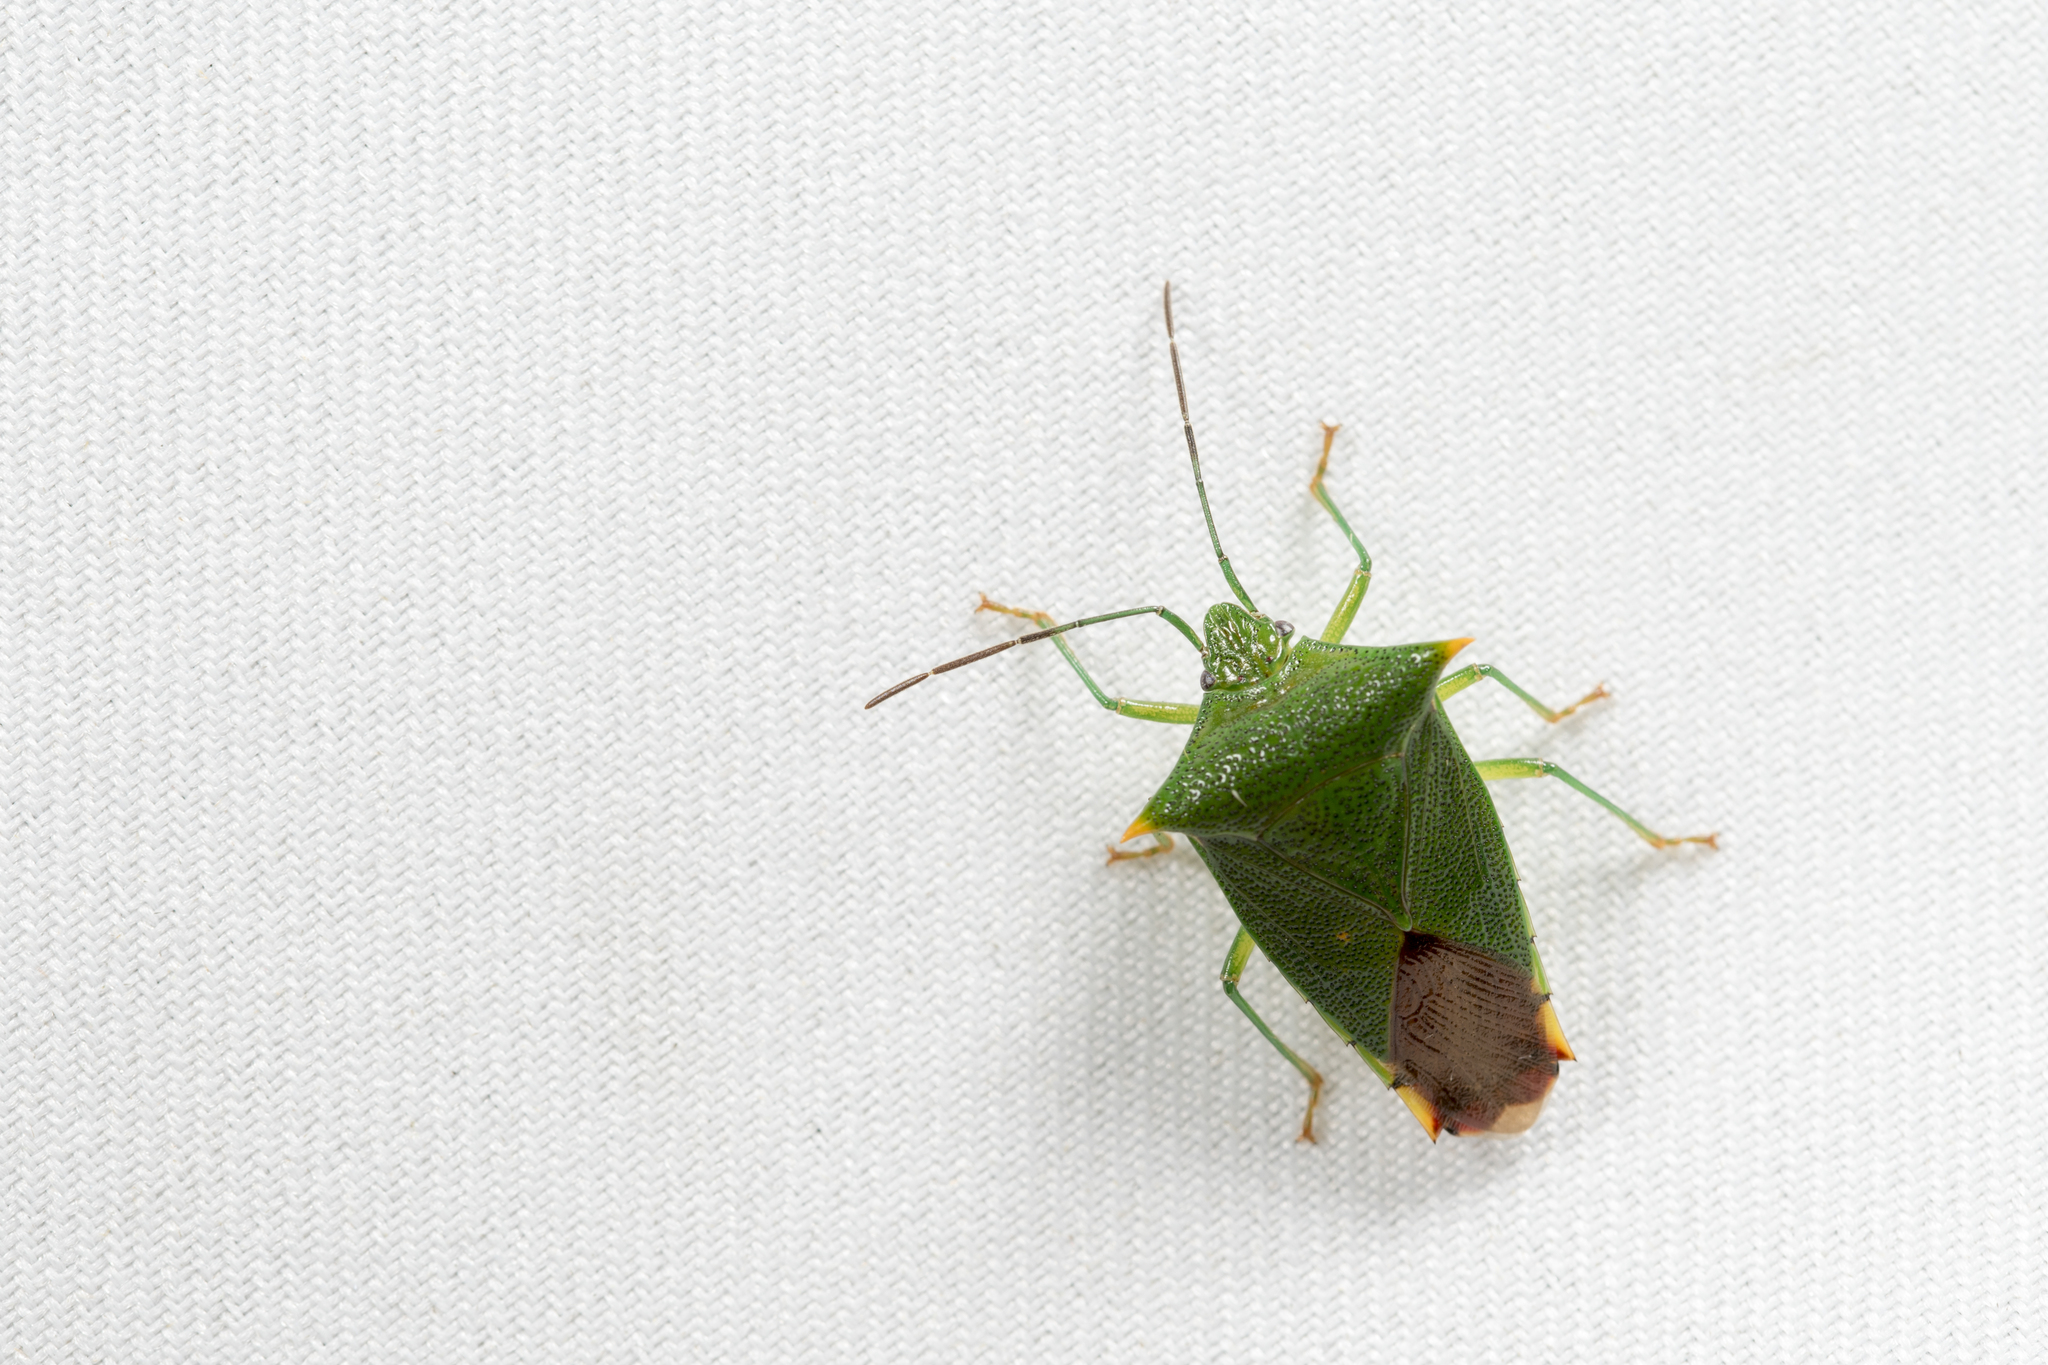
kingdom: Animalia
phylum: Arthropoda
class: Insecta
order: Hemiptera
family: Acanthosomatidae
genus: Acanthosoma
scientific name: Acanthosoma asahinai
